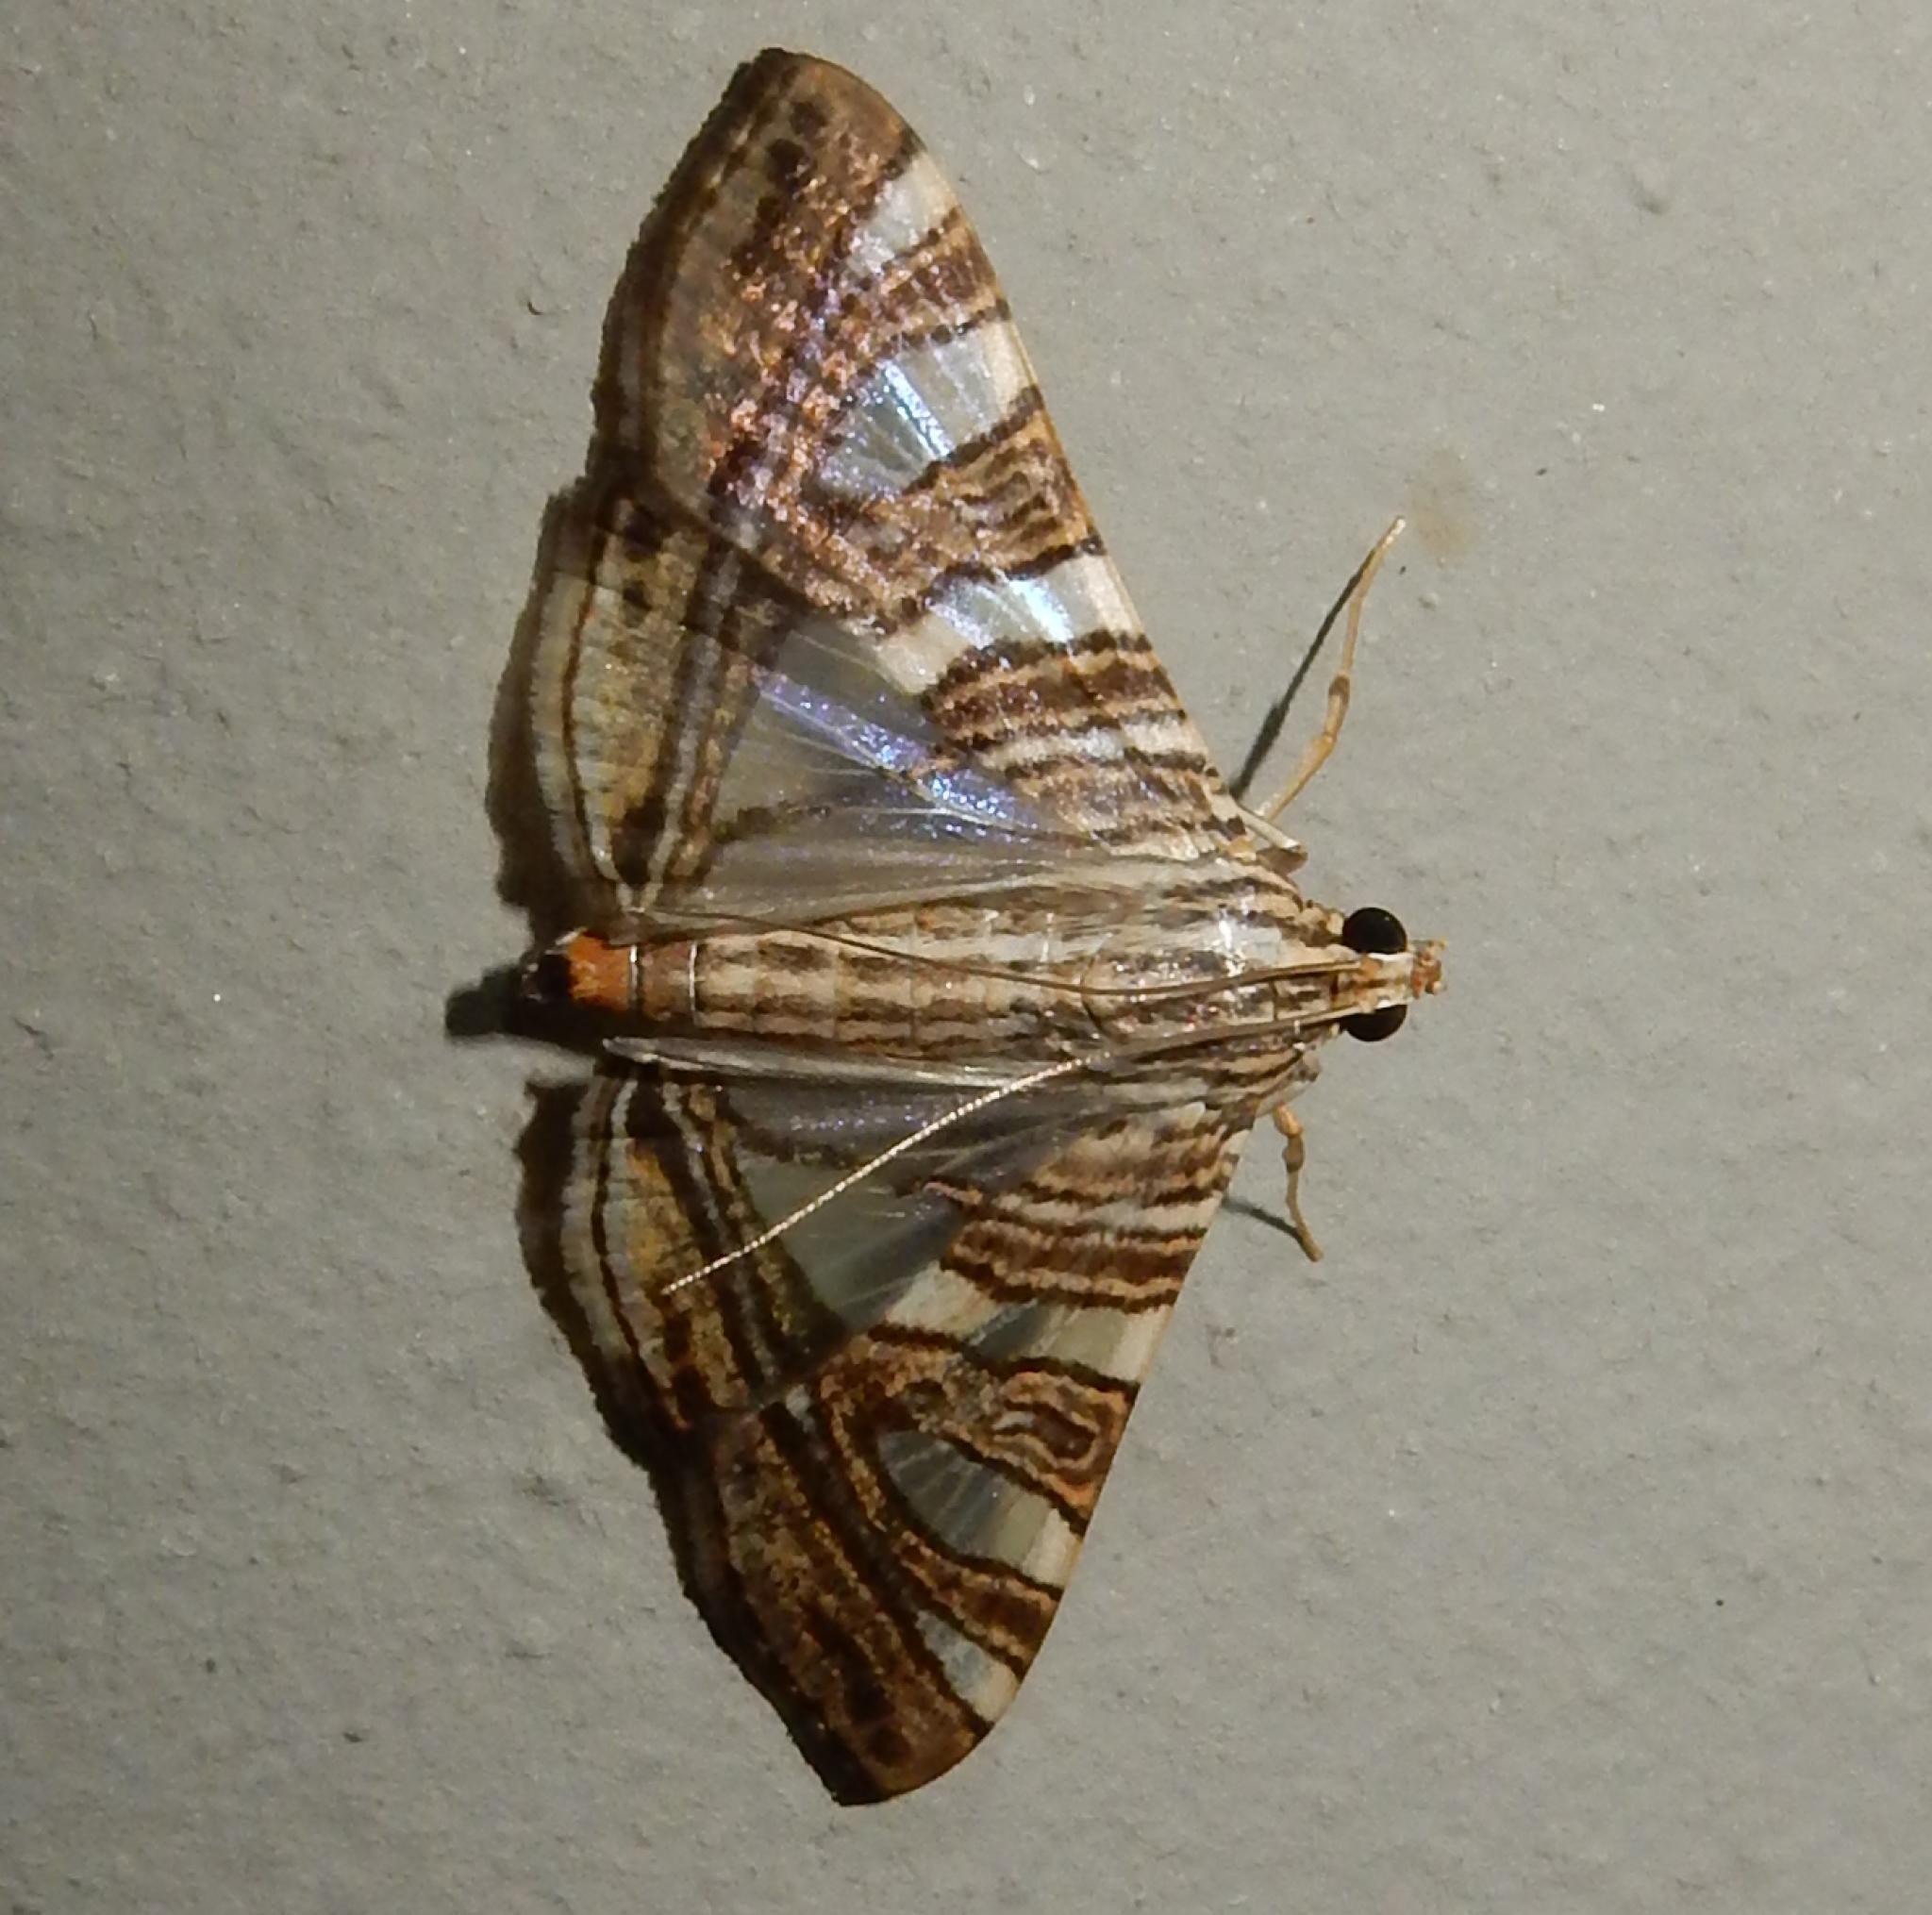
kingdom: Animalia
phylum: Arthropoda
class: Insecta
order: Lepidoptera
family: Crambidae
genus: Glyphodes
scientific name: Glyphodes stolalis
